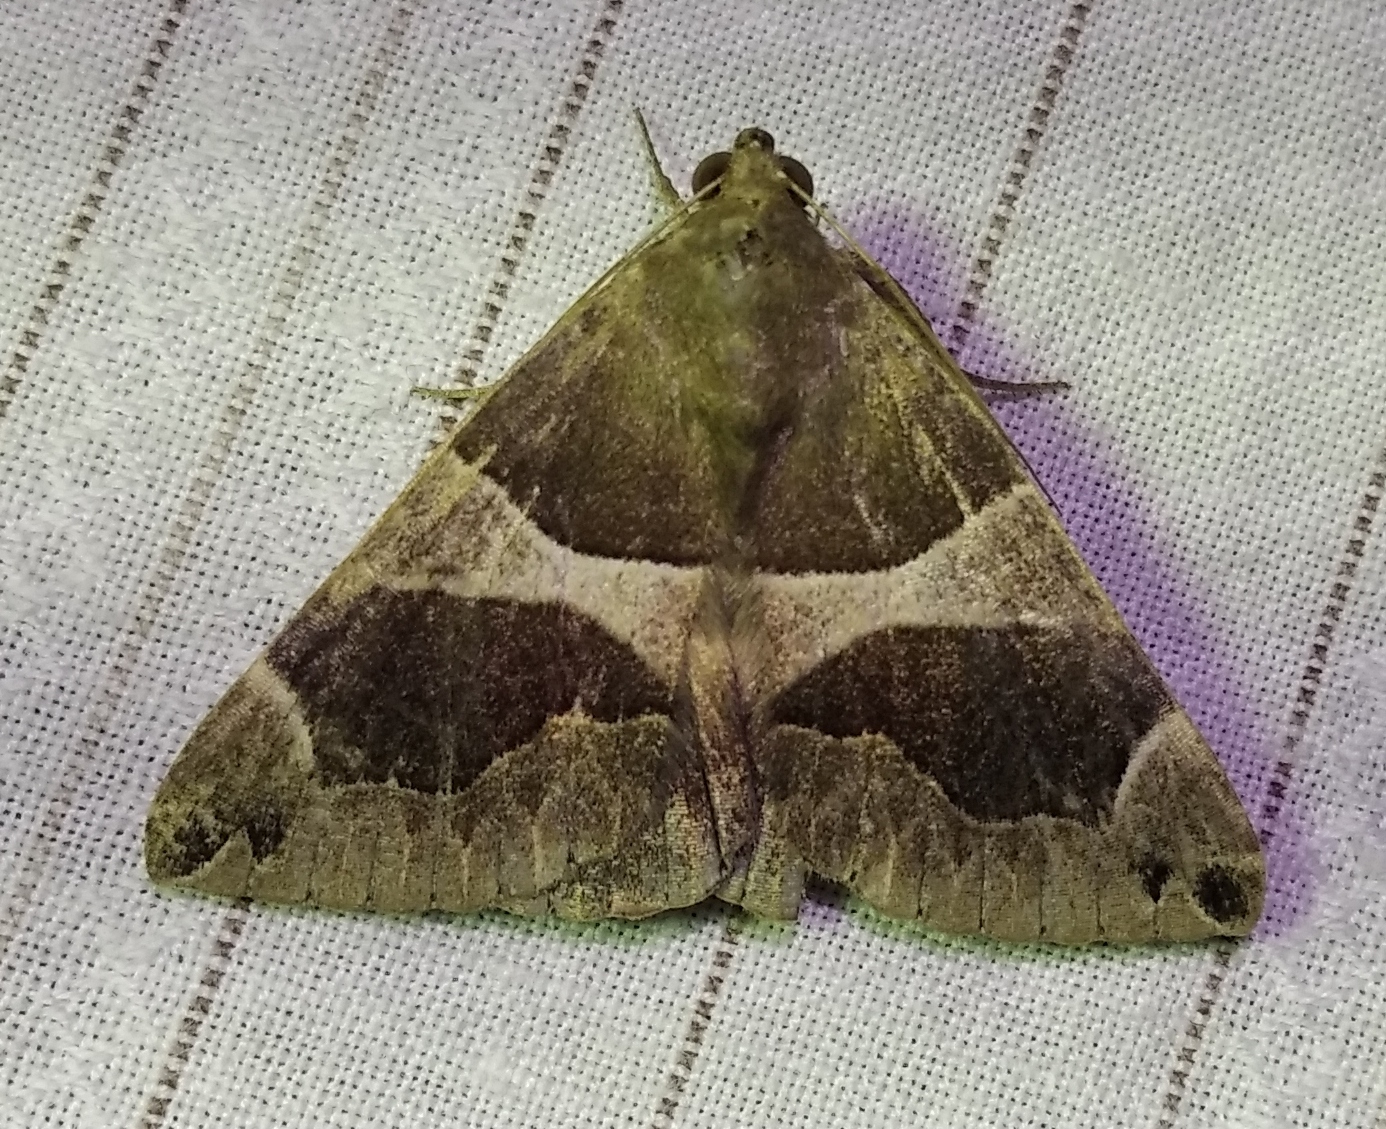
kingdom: Animalia
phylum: Arthropoda
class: Insecta
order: Lepidoptera
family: Erebidae
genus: Dysgonia
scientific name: Dysgonia algira
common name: Passenger
